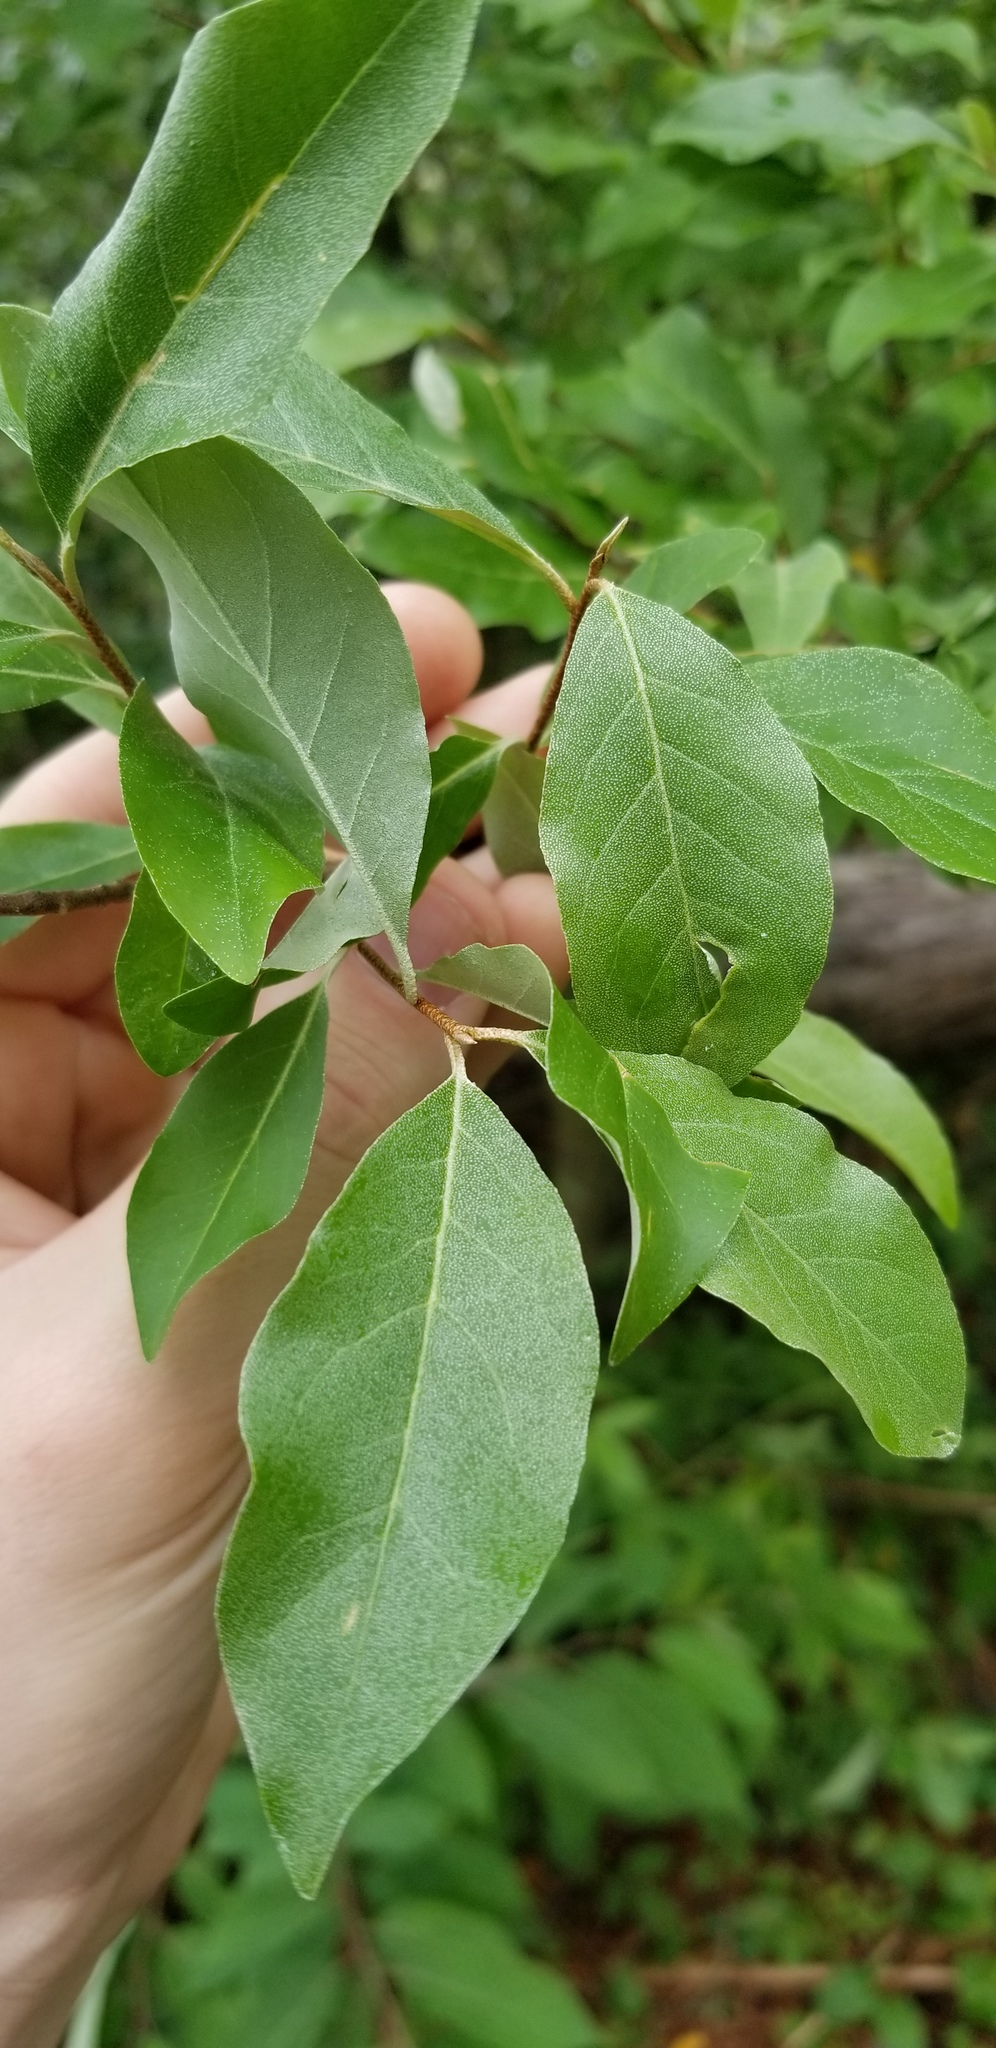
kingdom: Plantae
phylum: Tracheophyta
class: Magnoliopsida
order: Rosales
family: Elaeagnaceae
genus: Elaeagnus
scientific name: Elaeagnus umbellata
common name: Autumn olive
